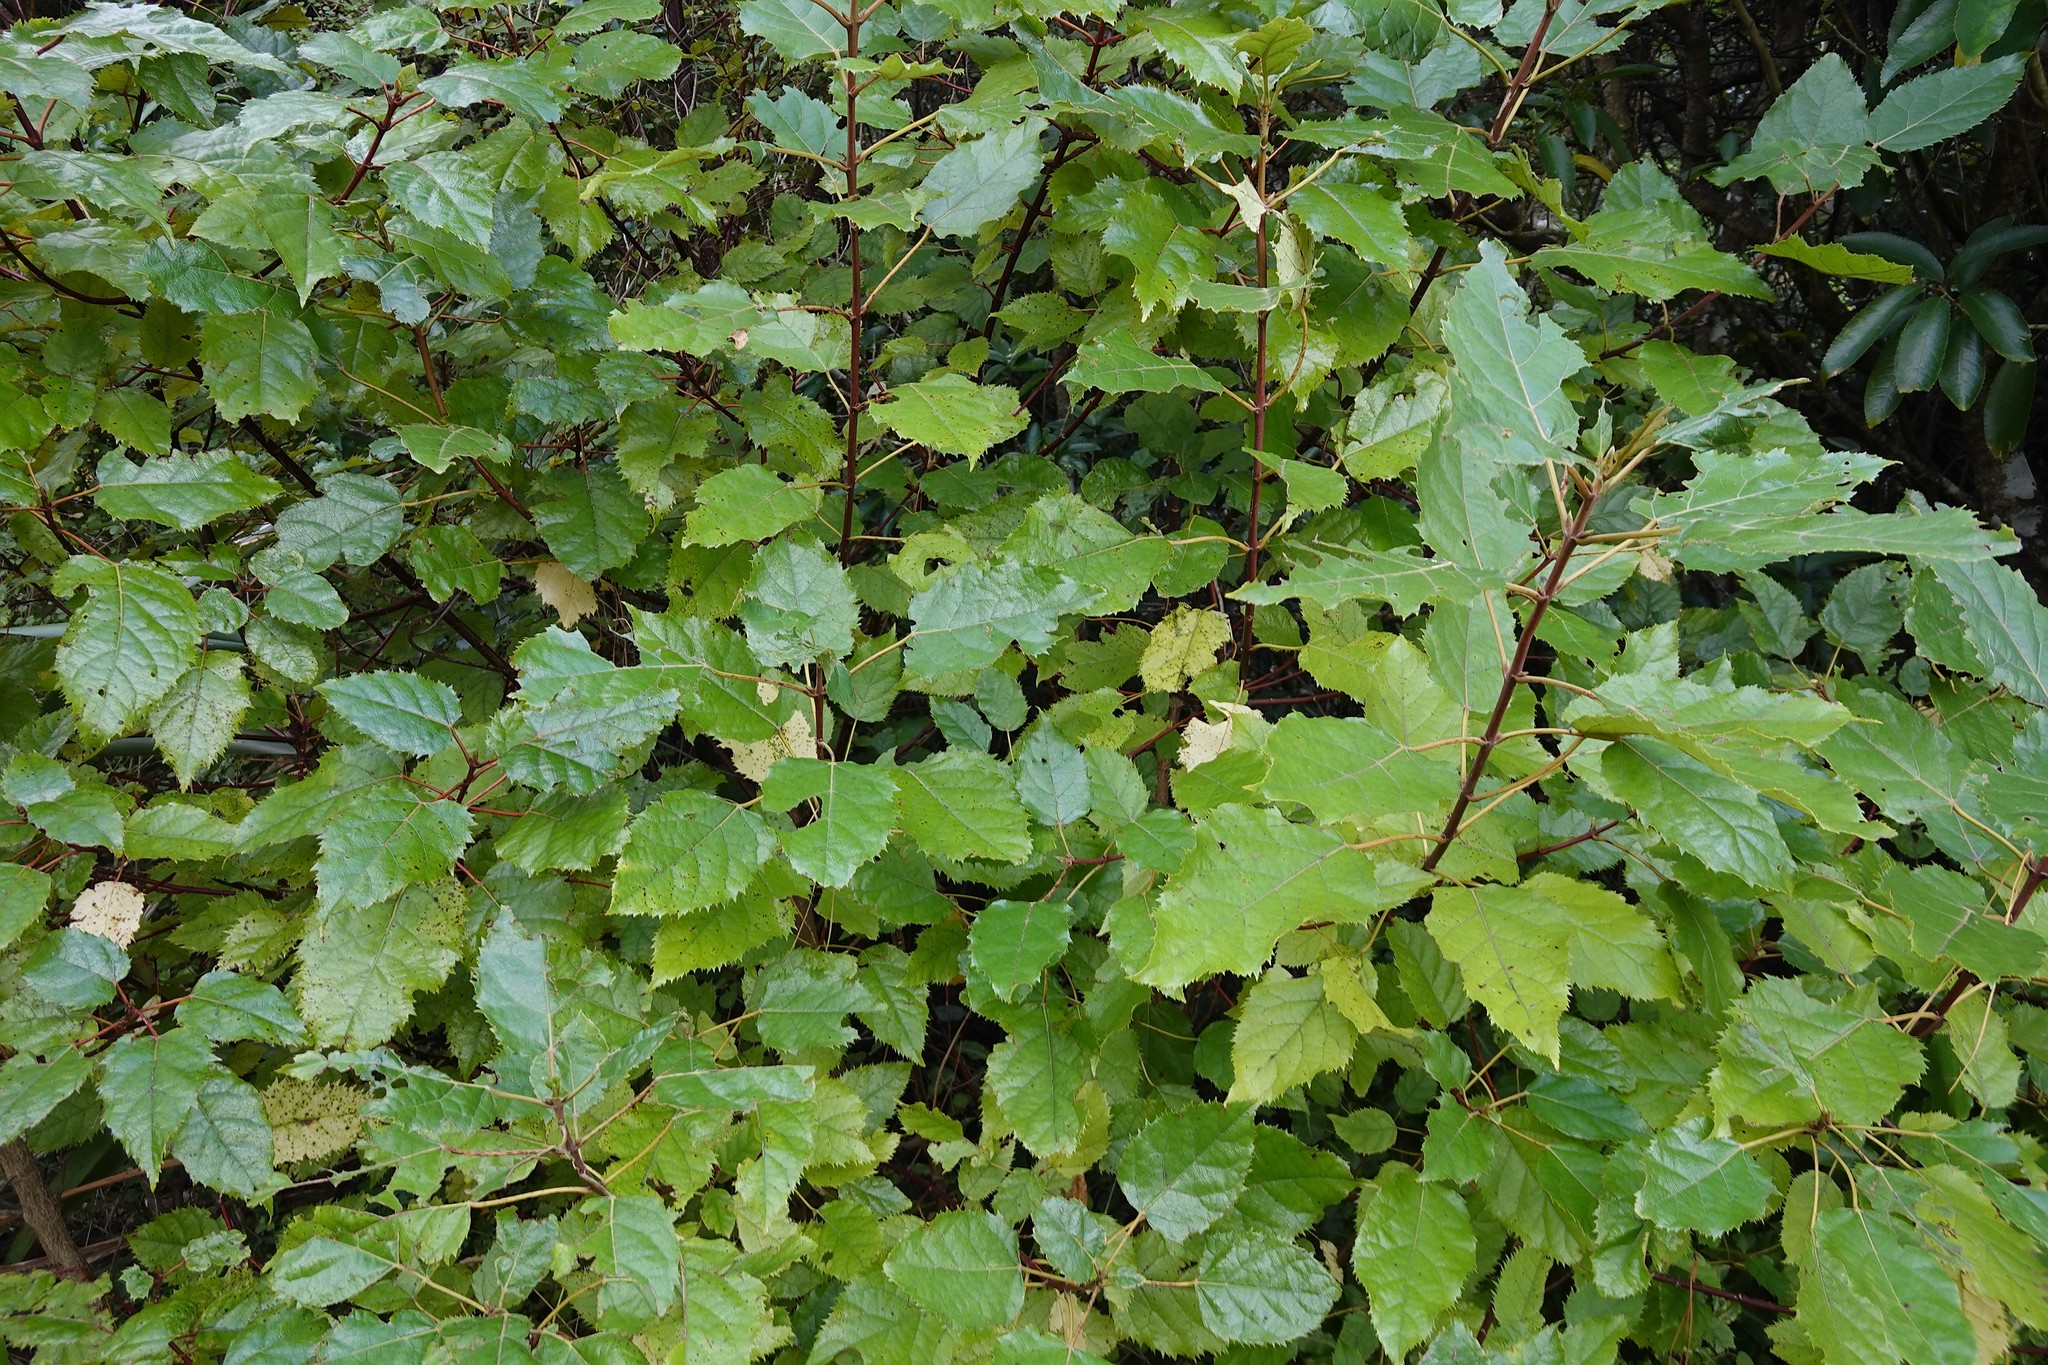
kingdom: Plantae
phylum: Tracheophyta
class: Magnoliopsida
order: Oxalidales
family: Elaeocarpaceae
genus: Aristotelia
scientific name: Aristotelia serrata
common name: New zealand wineberry
